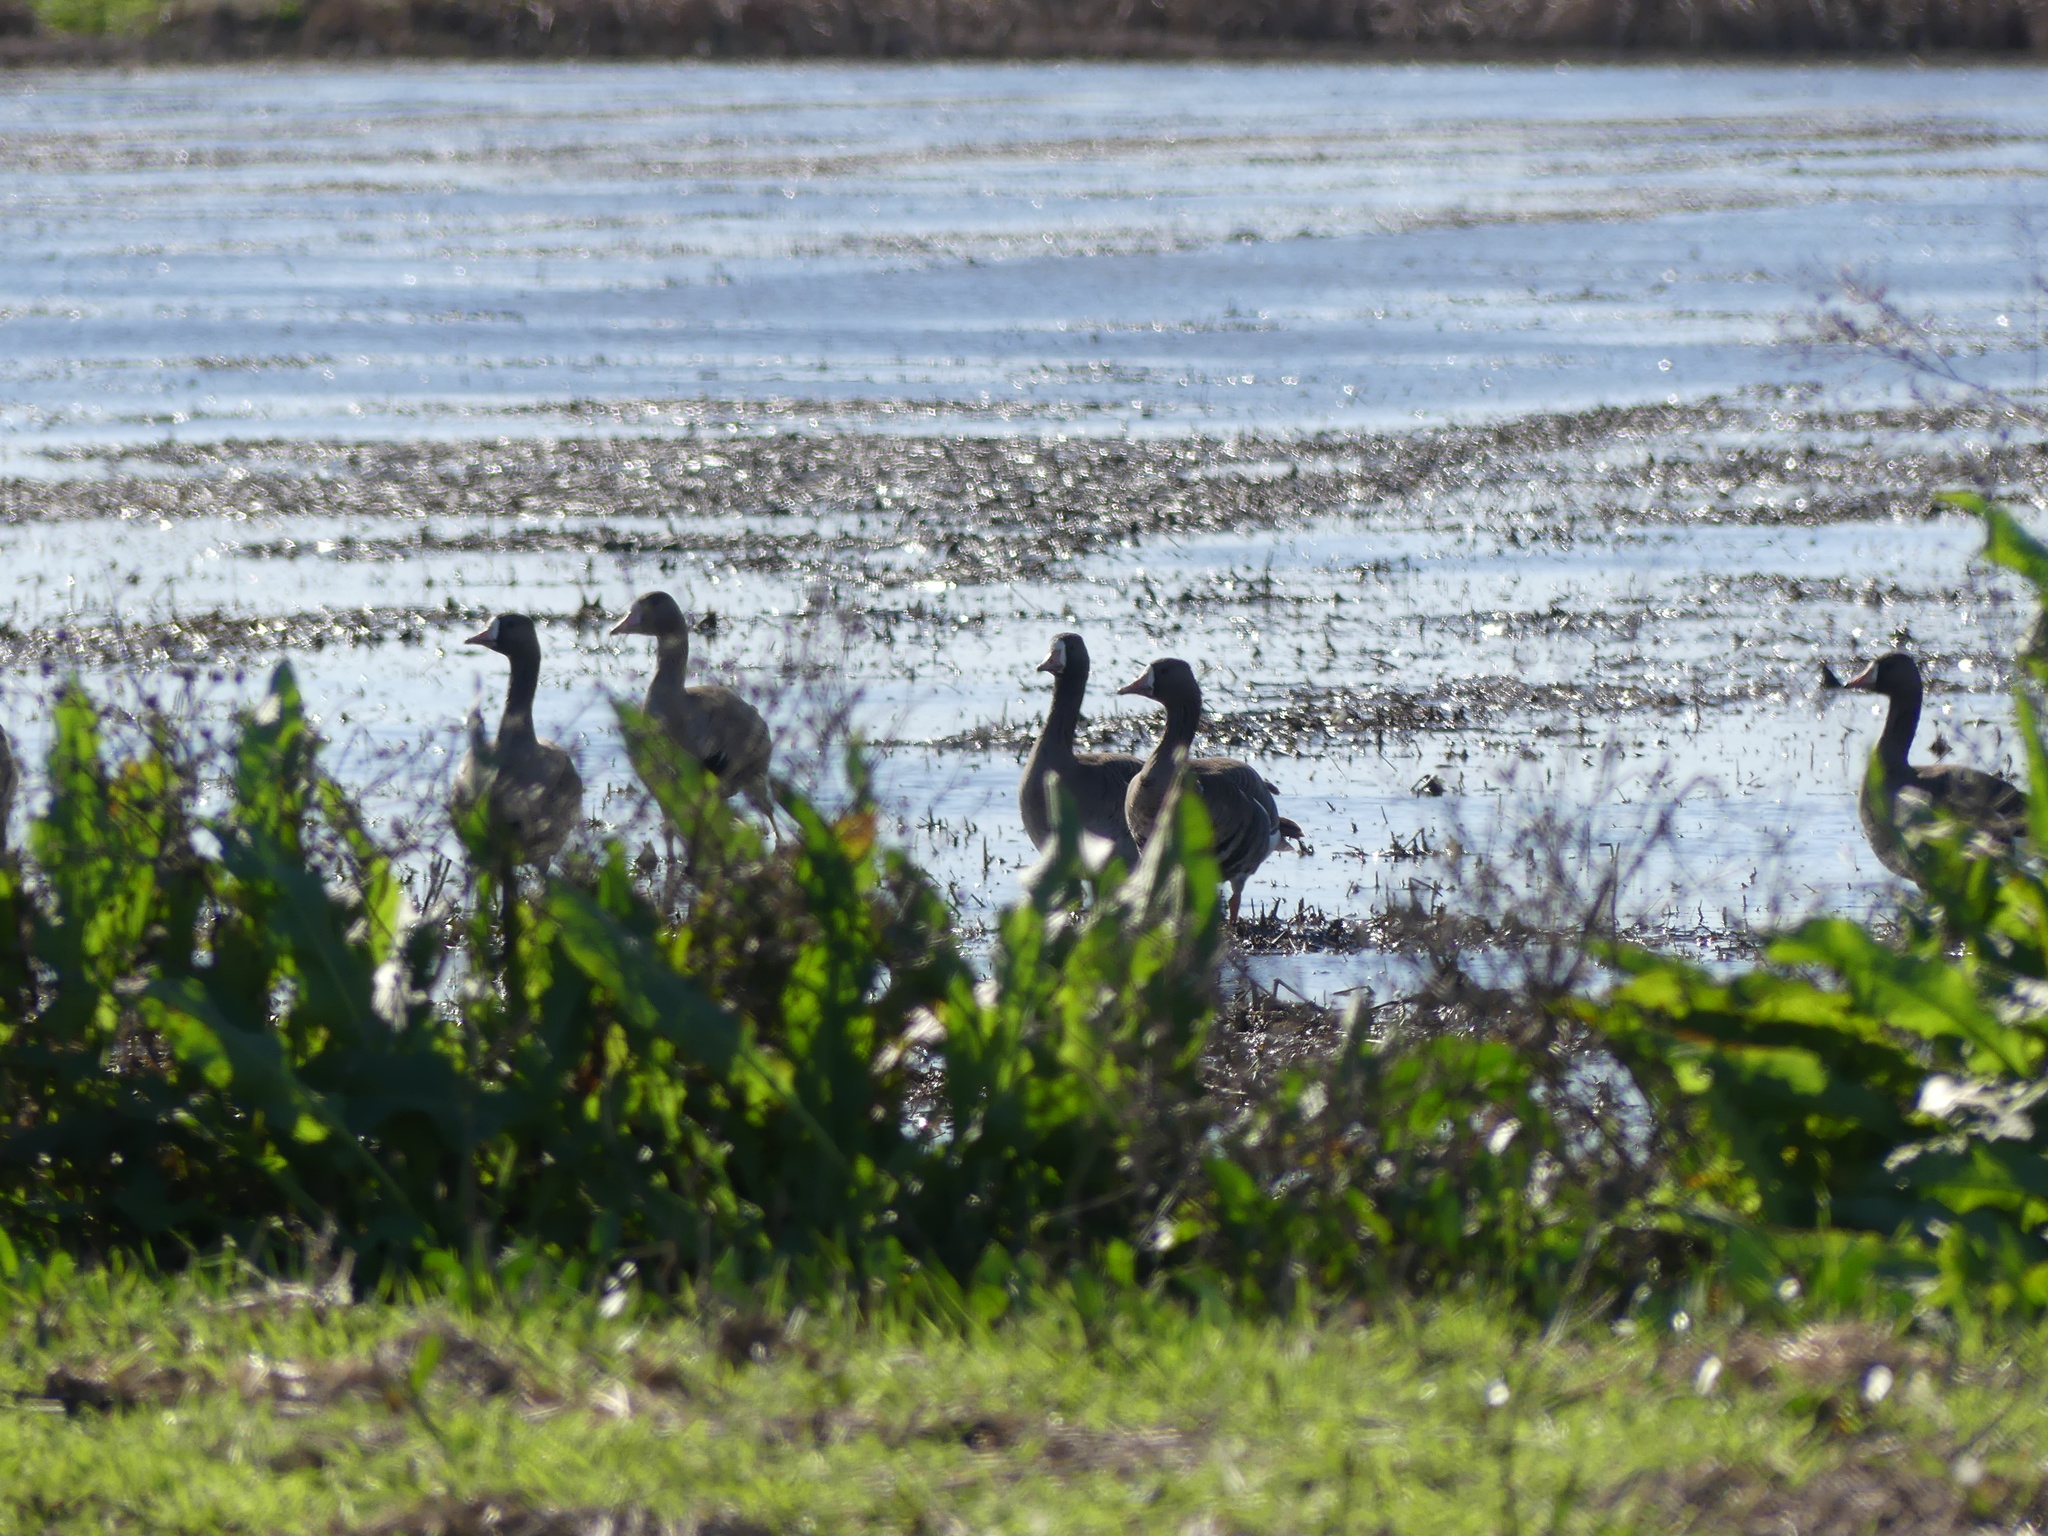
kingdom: Animalia
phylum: Chordata
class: Aves
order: Anseriformes
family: Anatidae
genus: Anser
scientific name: Anser albifrons
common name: Greater white-fronted goose
